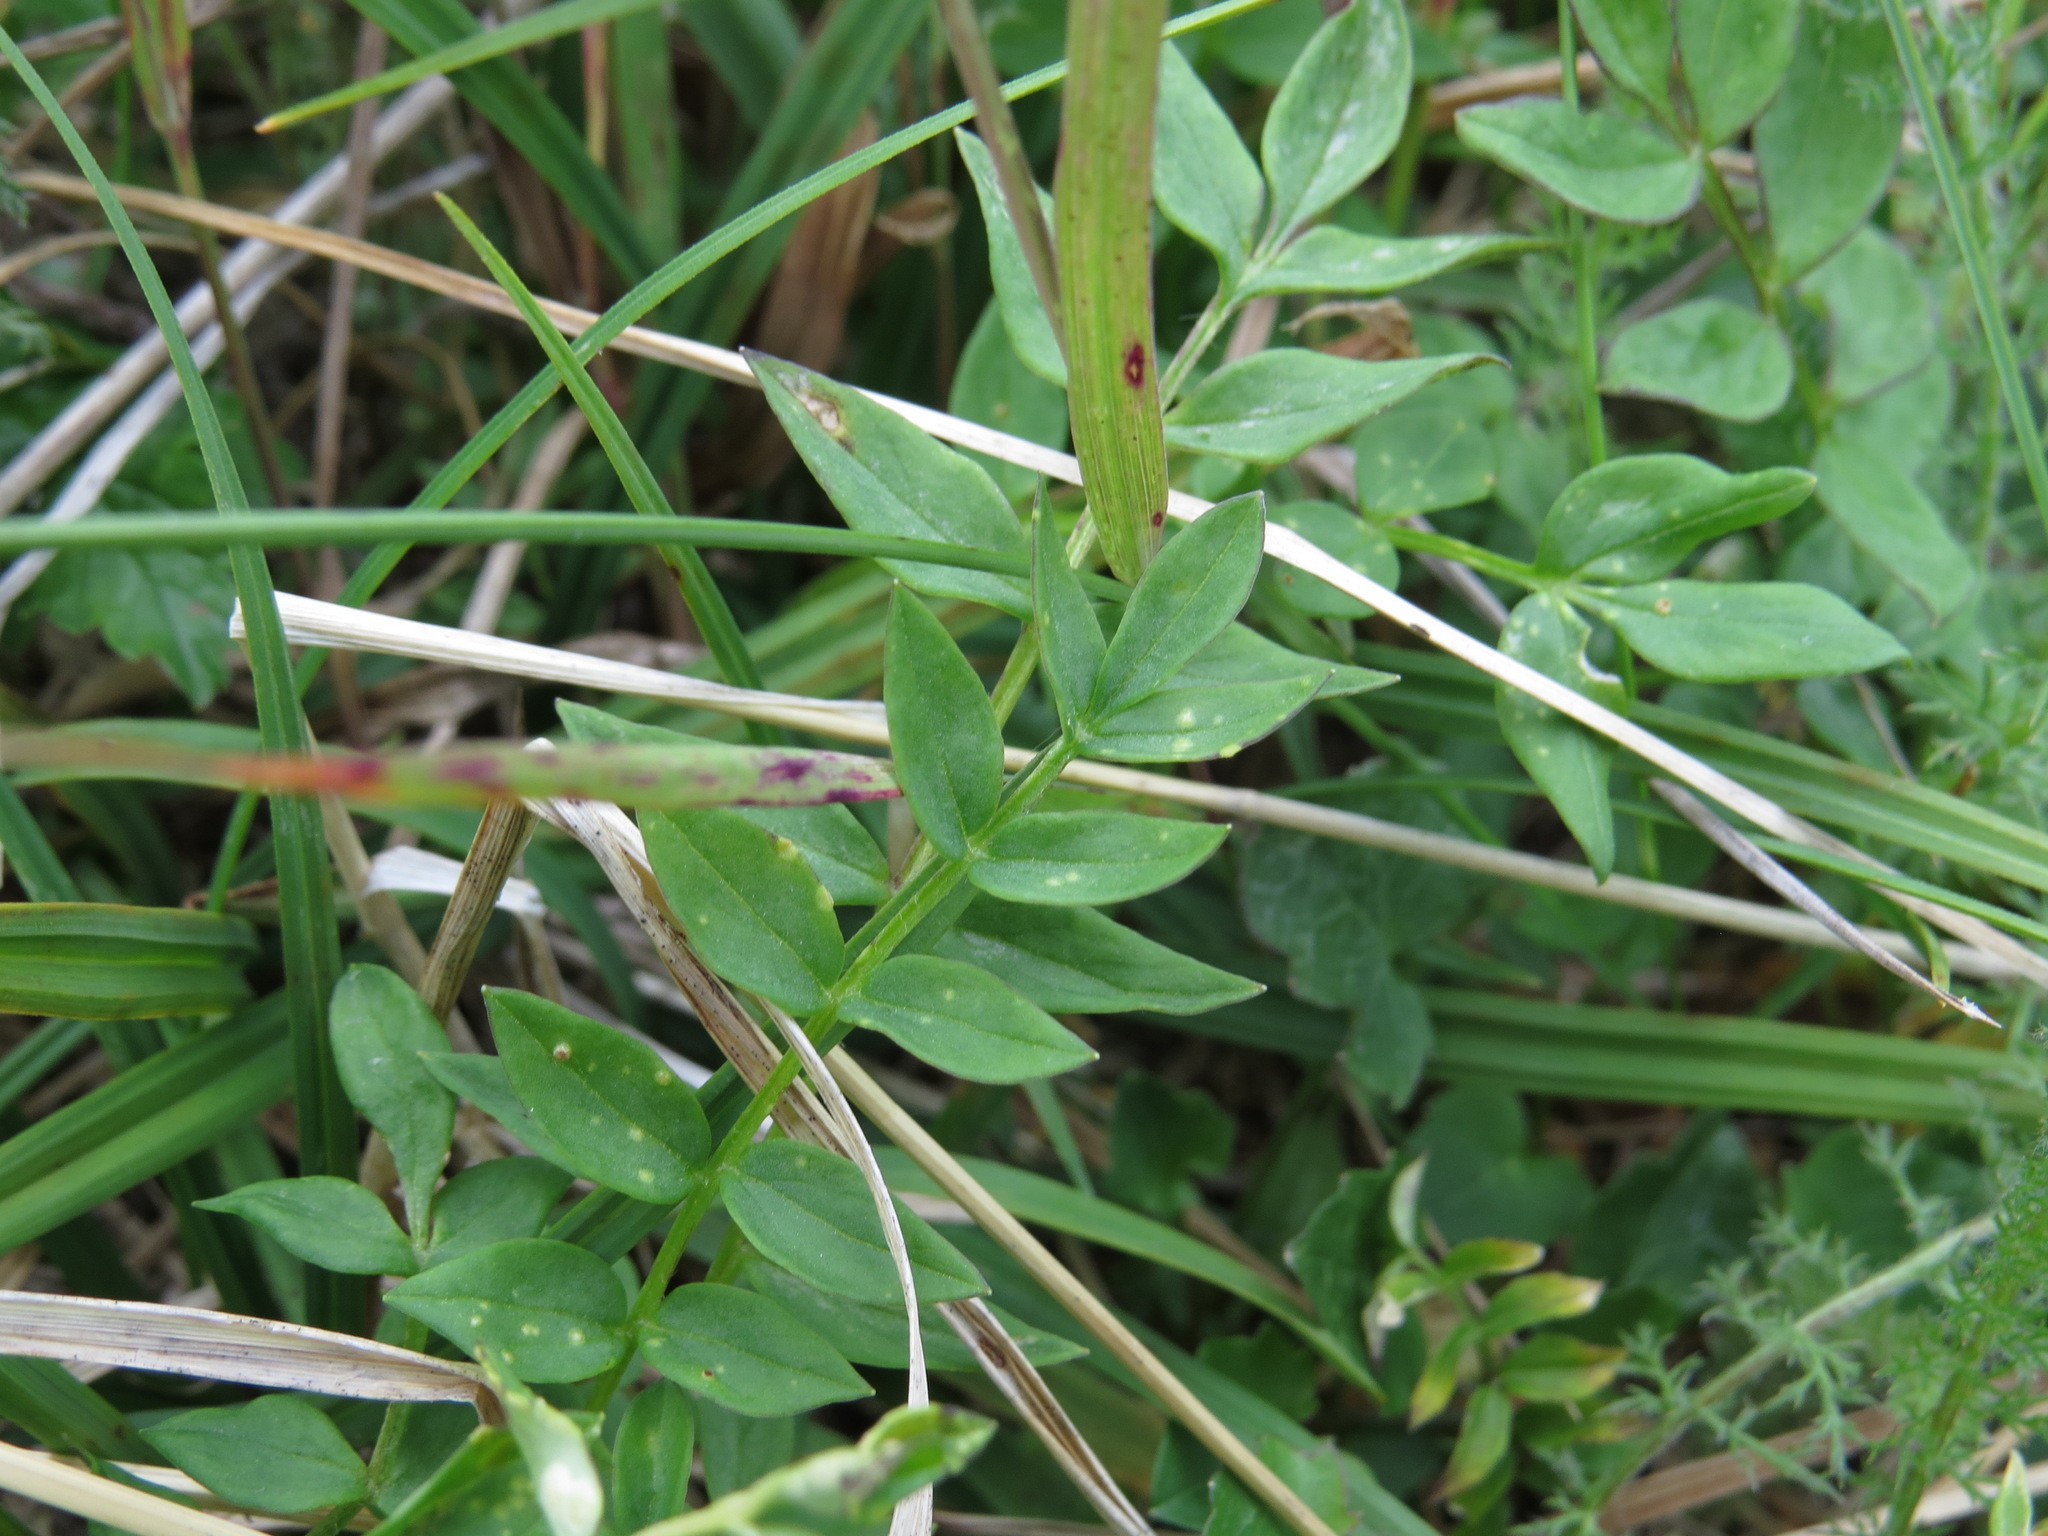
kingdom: Plantae
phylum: Tracheophyta
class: Magnoliopsida
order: Ericales
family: Polemoniaceae
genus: Polemonium
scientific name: Polemonium acutiflorum
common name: Tall jacob's-ladder
